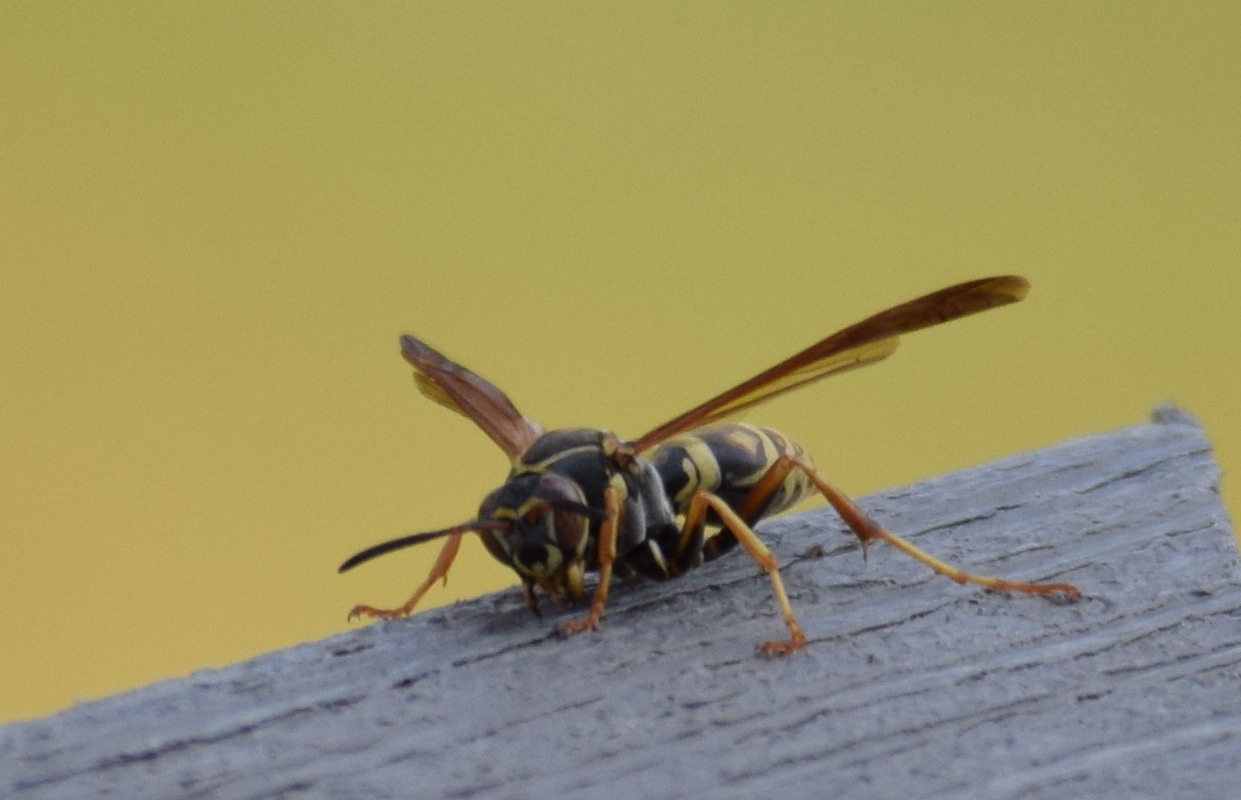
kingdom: Animalia
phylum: Arthropoda
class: Insecta
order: Hymenoptera
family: Eumenidae
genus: Polistes
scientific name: Polistes fuscatus
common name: Dark paper wasp
